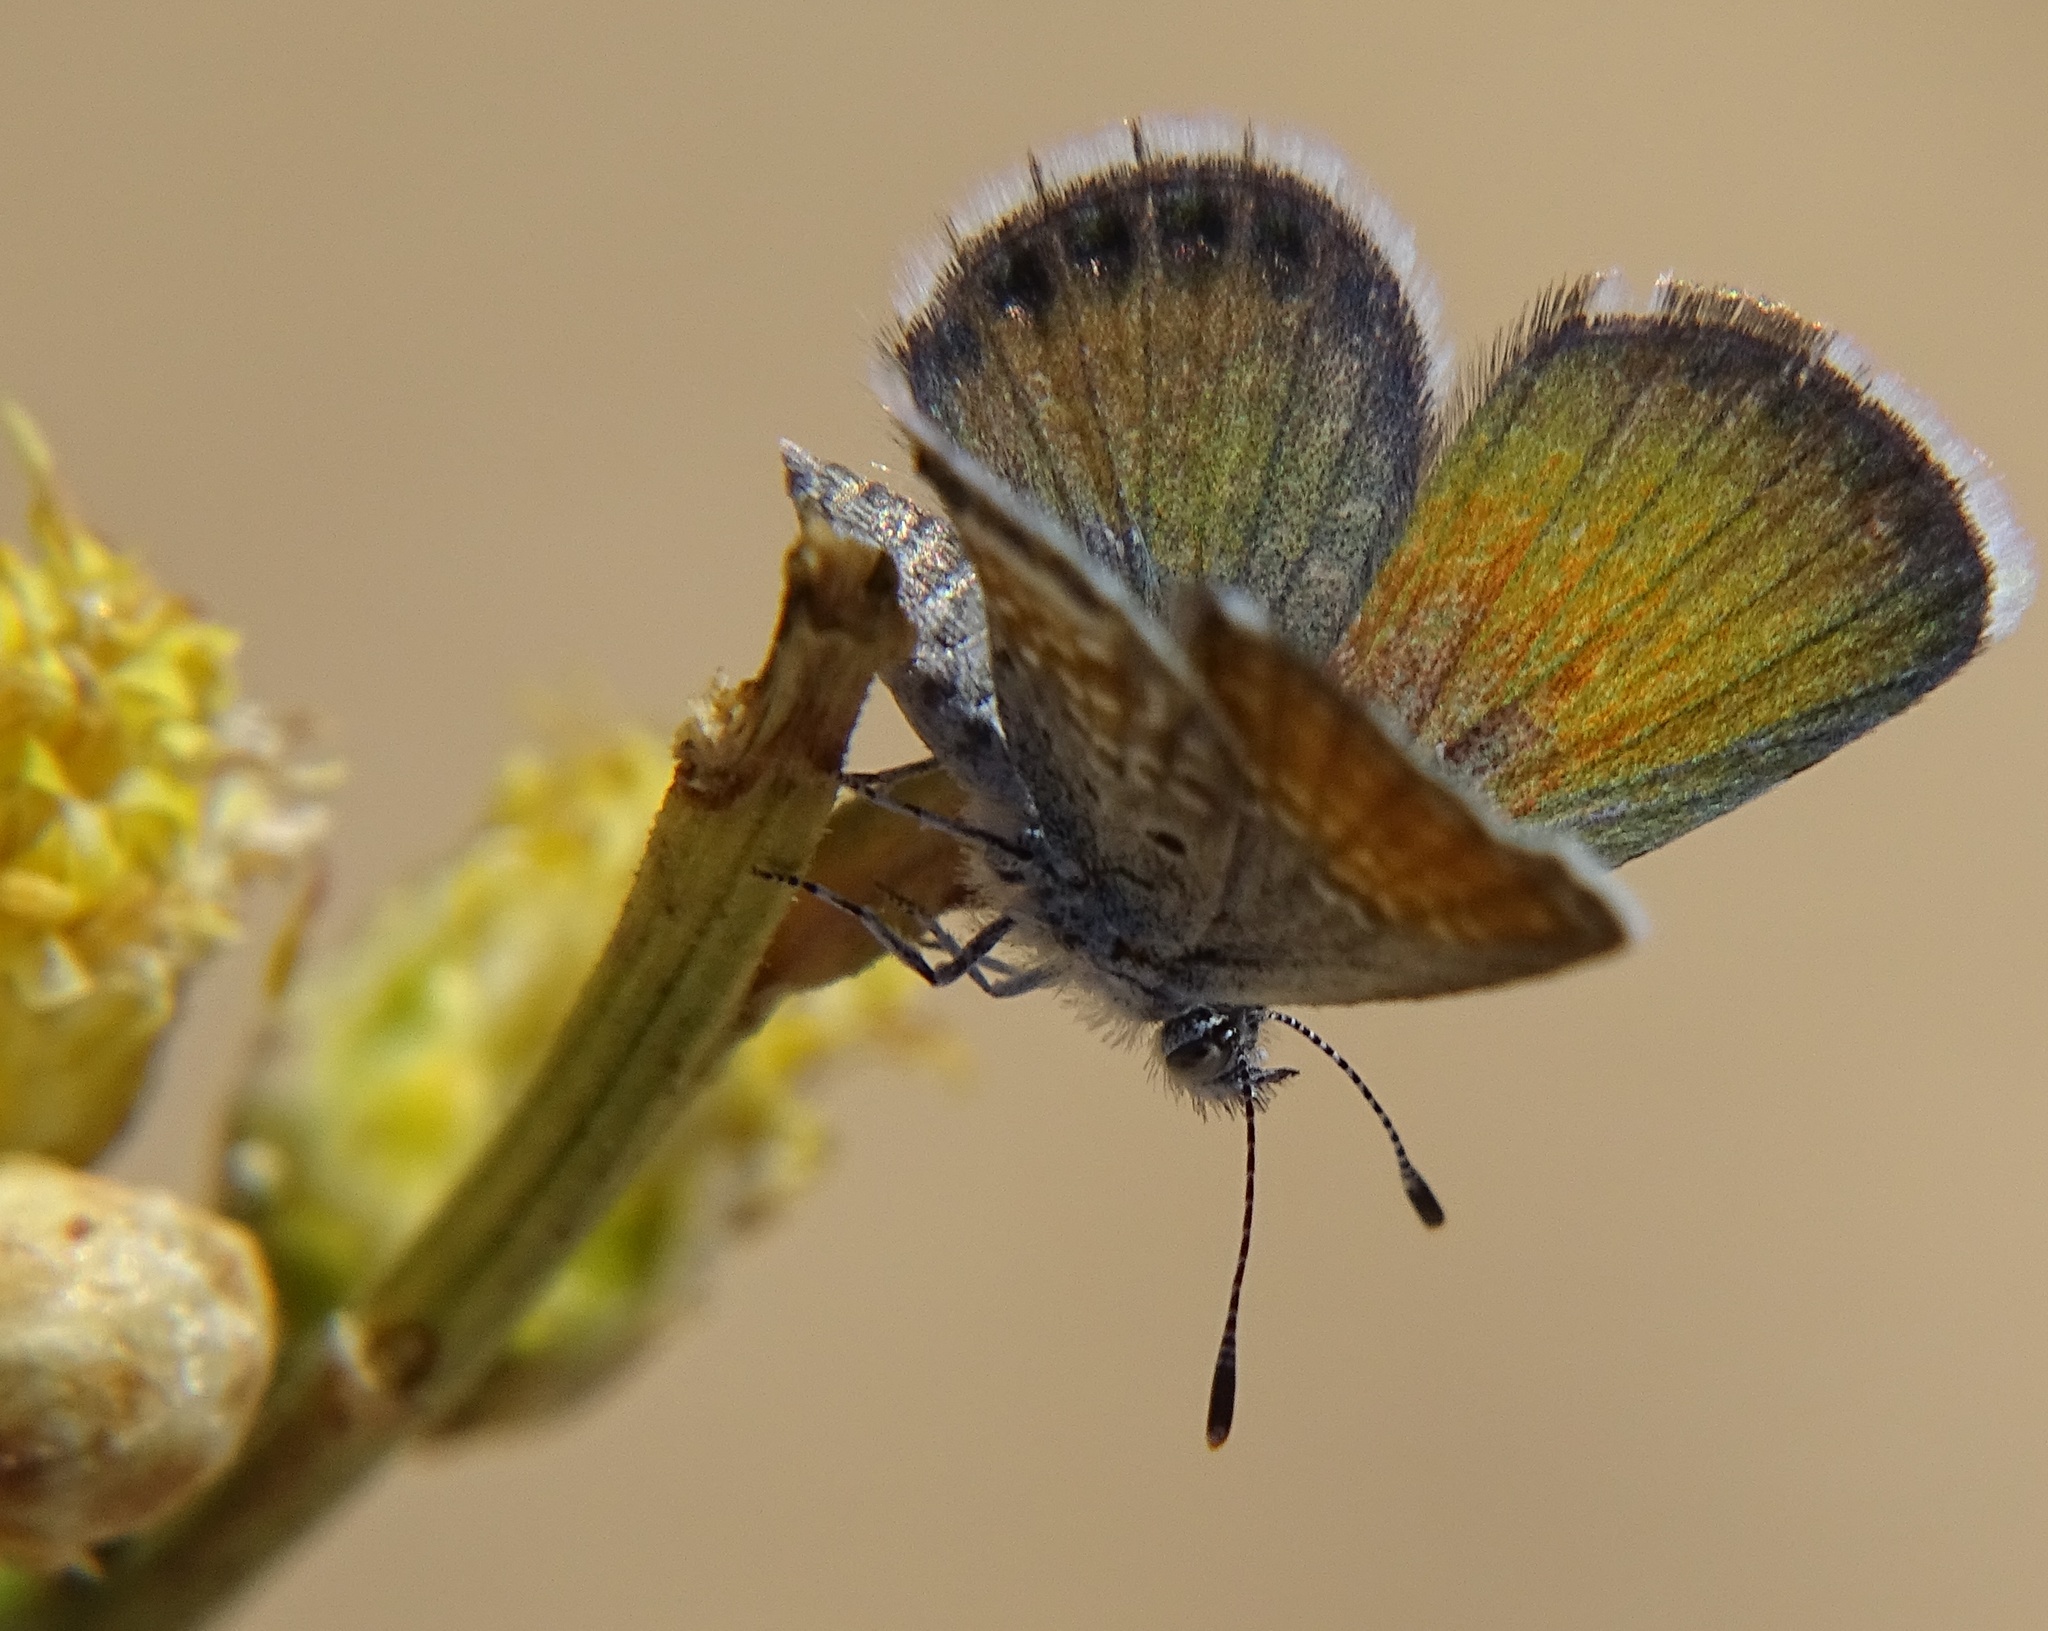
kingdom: Animalia
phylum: Arthropoda
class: Insecta
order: Lepidoptera
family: Lycaenidae
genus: Brephidium
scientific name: Brephidium exilis
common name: Pygmy blue
